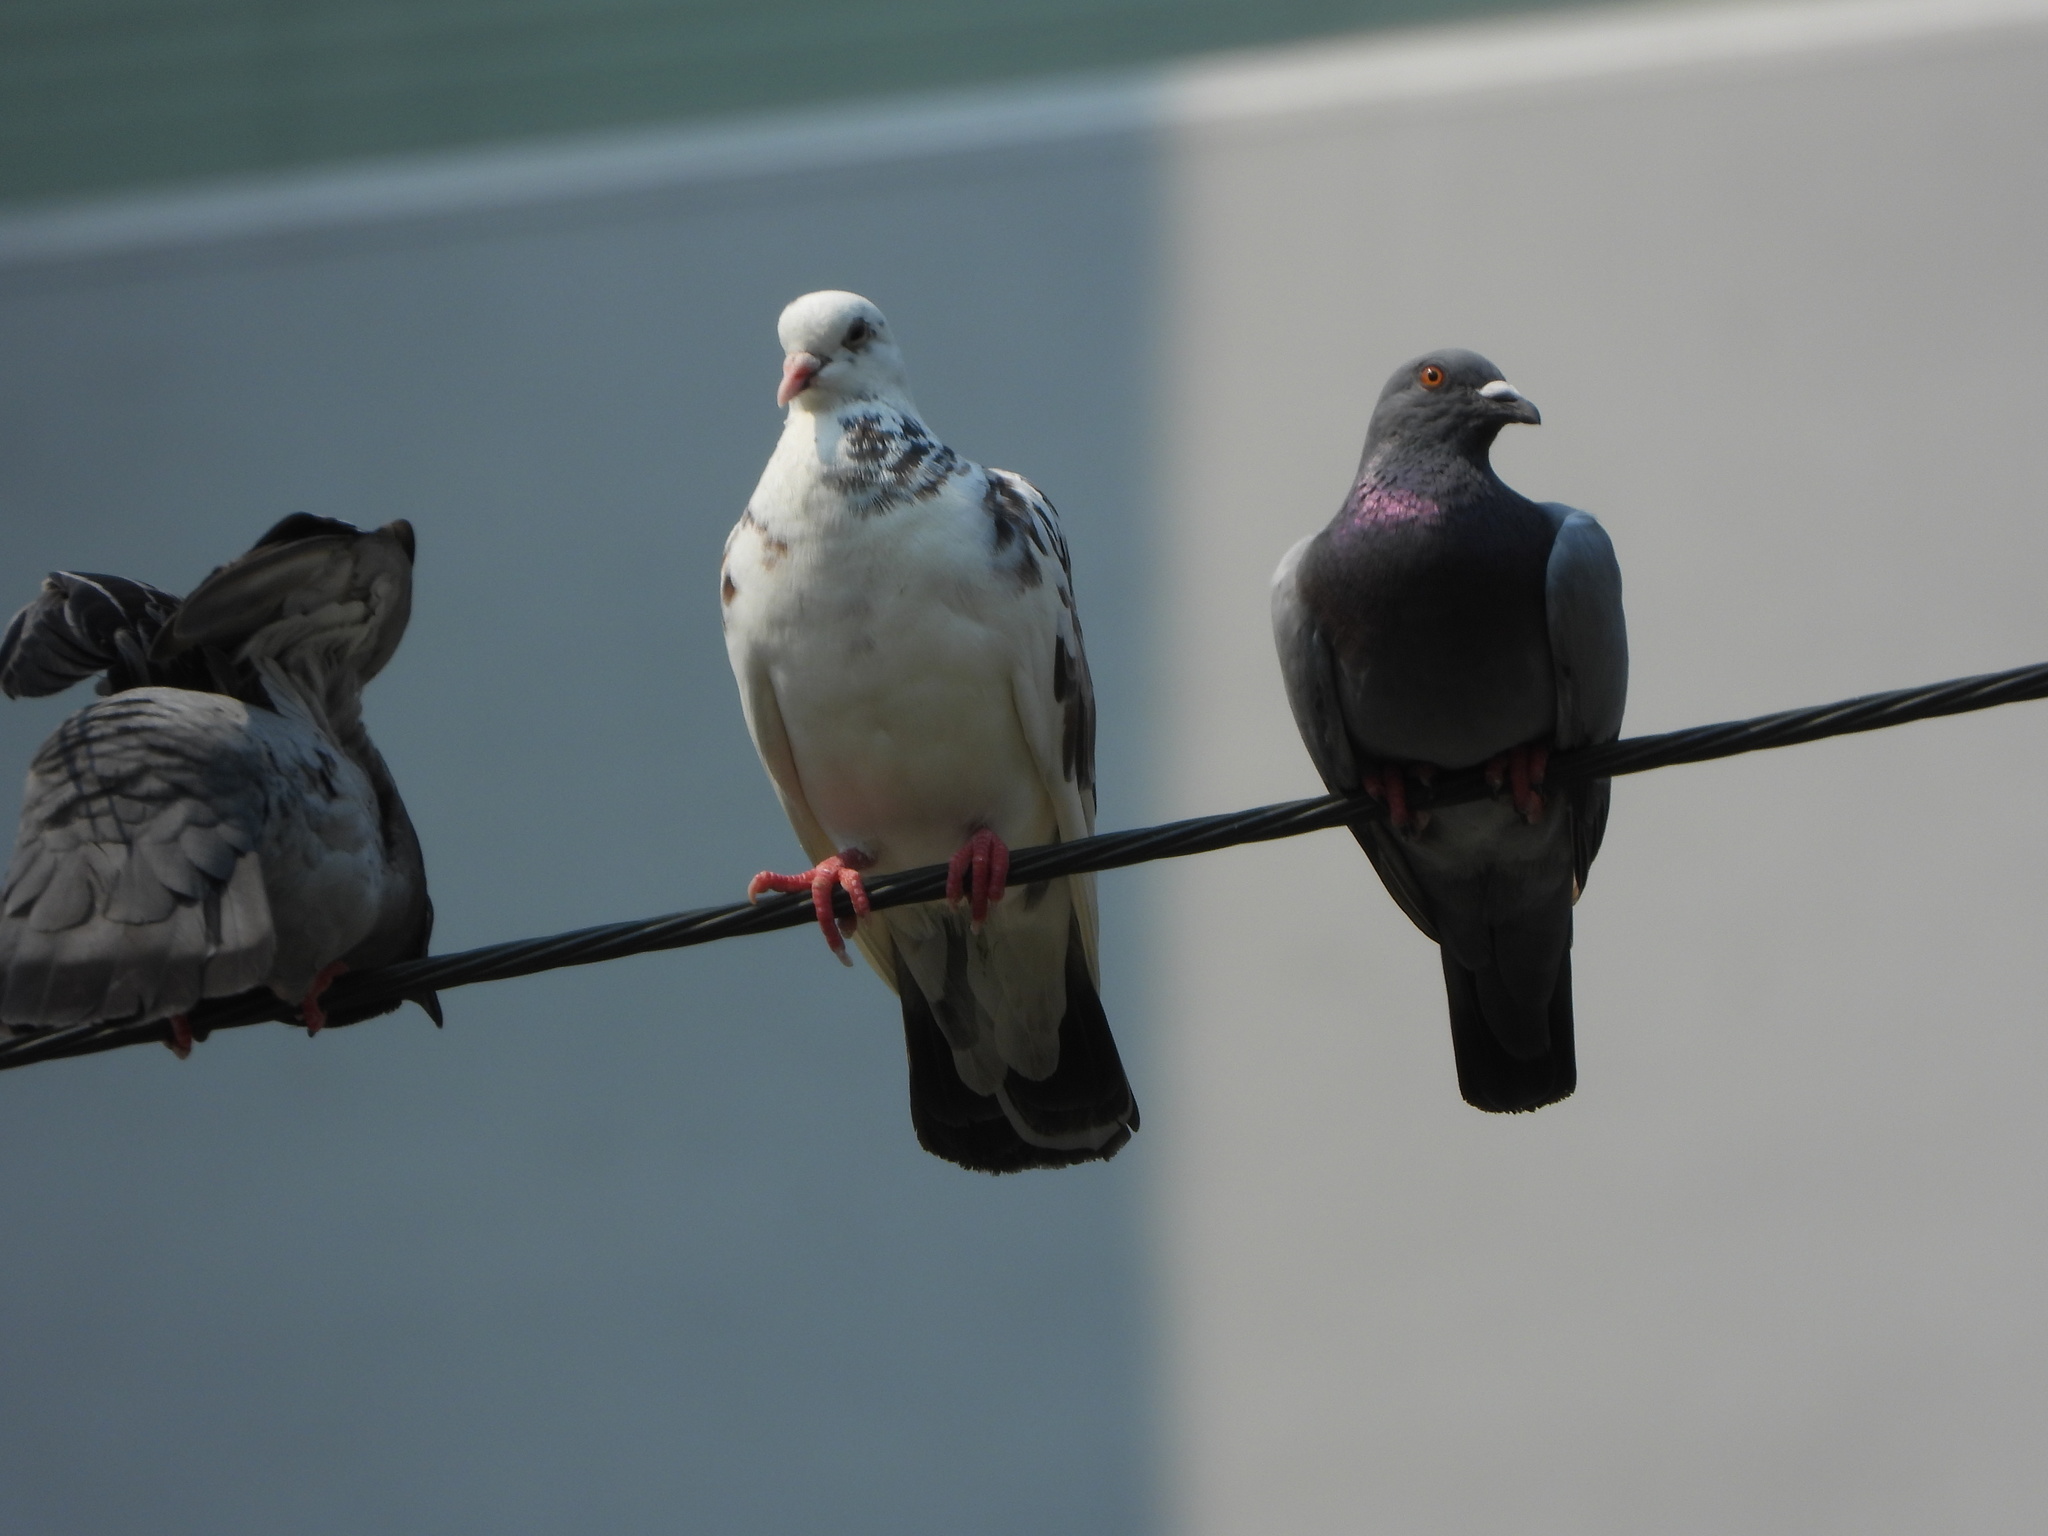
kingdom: Animalia
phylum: Chordata
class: Aves
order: Columbiformes
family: Columbidae
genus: Columba
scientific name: Columba livia
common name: Rock pigeon
